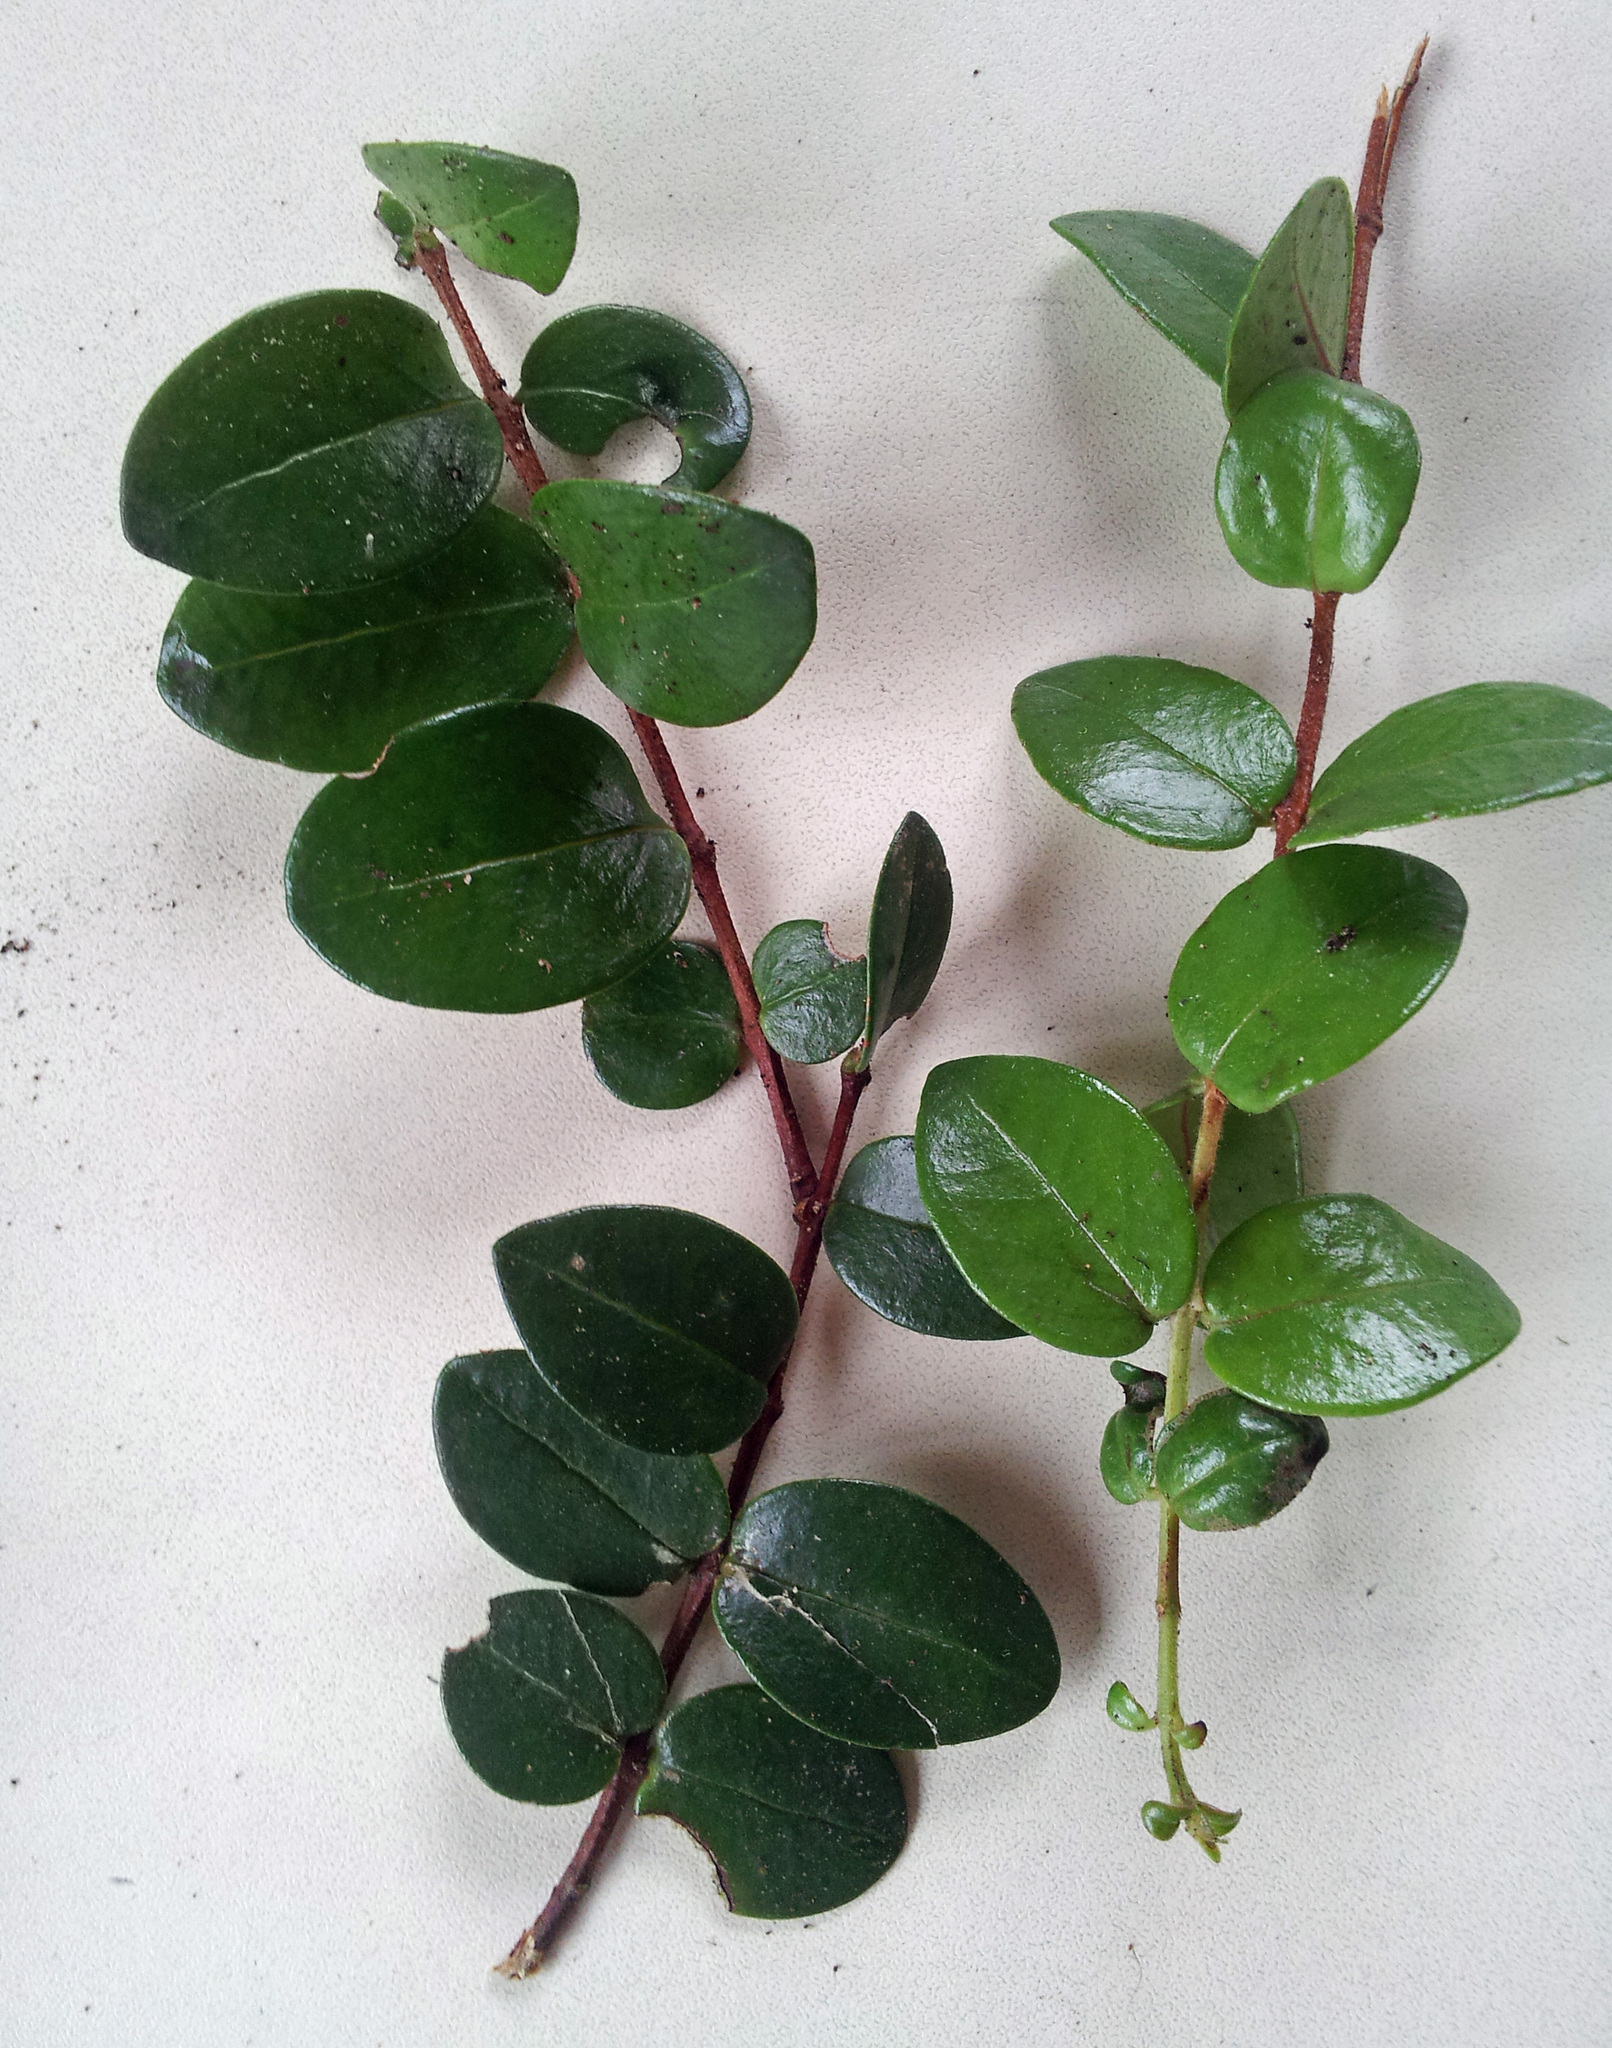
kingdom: Plantae
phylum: Tracheophyta
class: Magnoliopsida
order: Myrtales
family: Myrtaceae
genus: Metrosideros
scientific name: Metrosideros carminea
